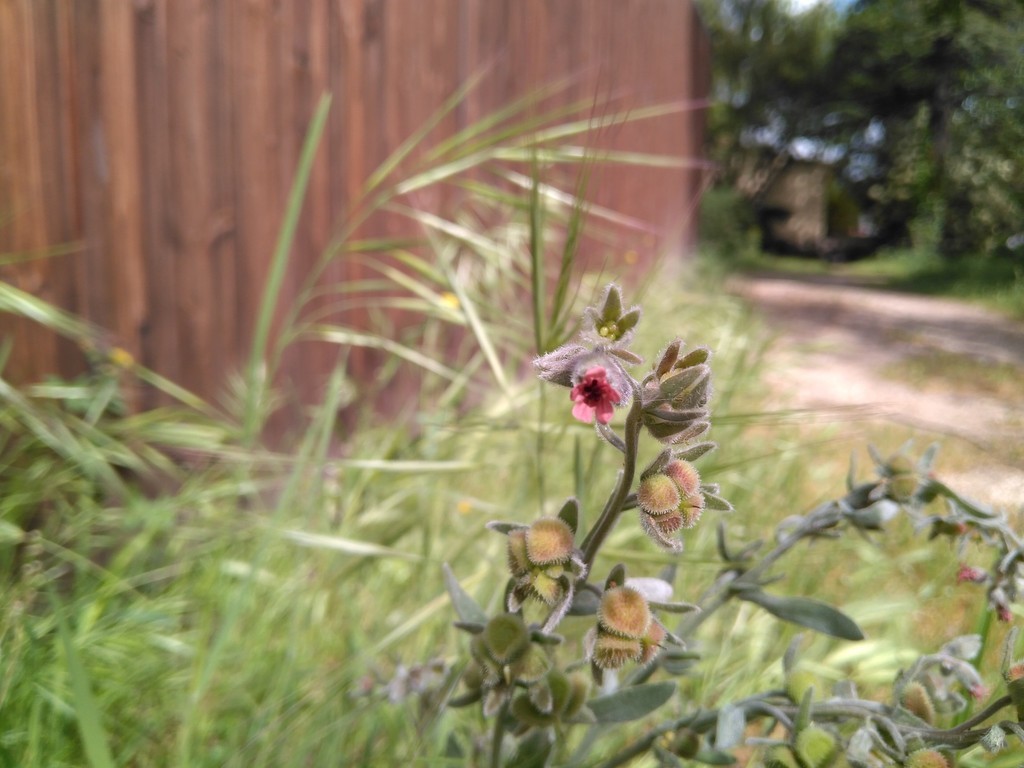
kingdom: Plantae
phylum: Tracheophyta
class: Magnoliopsida
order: Boraginales
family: Boraginaceae
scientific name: Boraginaceae
